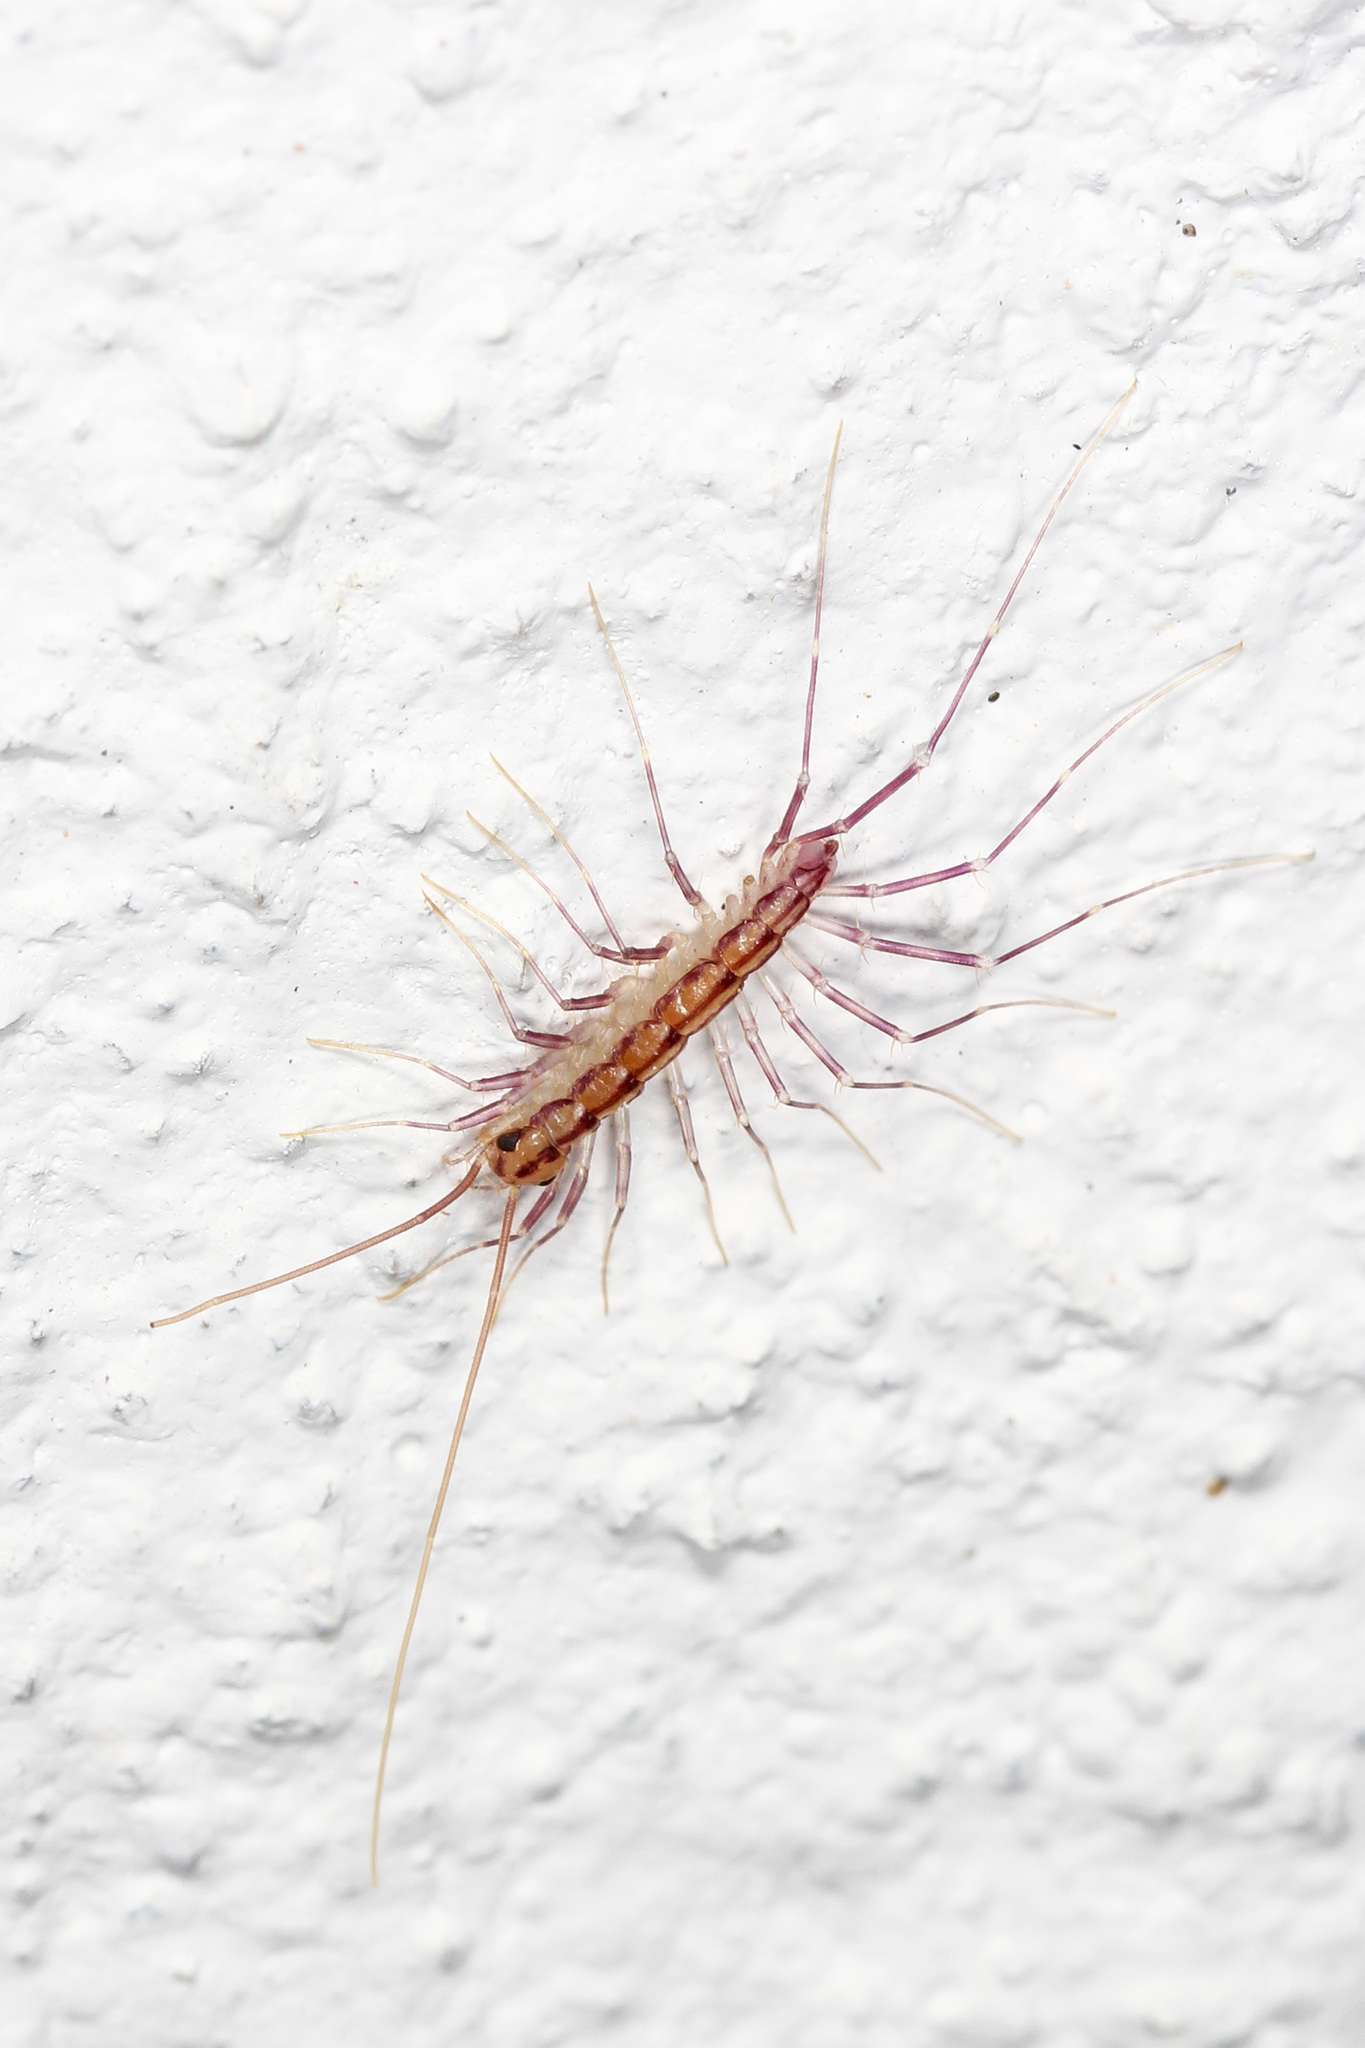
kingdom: Animalia
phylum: Arthropoda
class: Chilopoda
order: Scutigeromorpha
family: Scutigeridae
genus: Scutigera
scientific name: Scutigera coleoptrata
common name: House centipede
